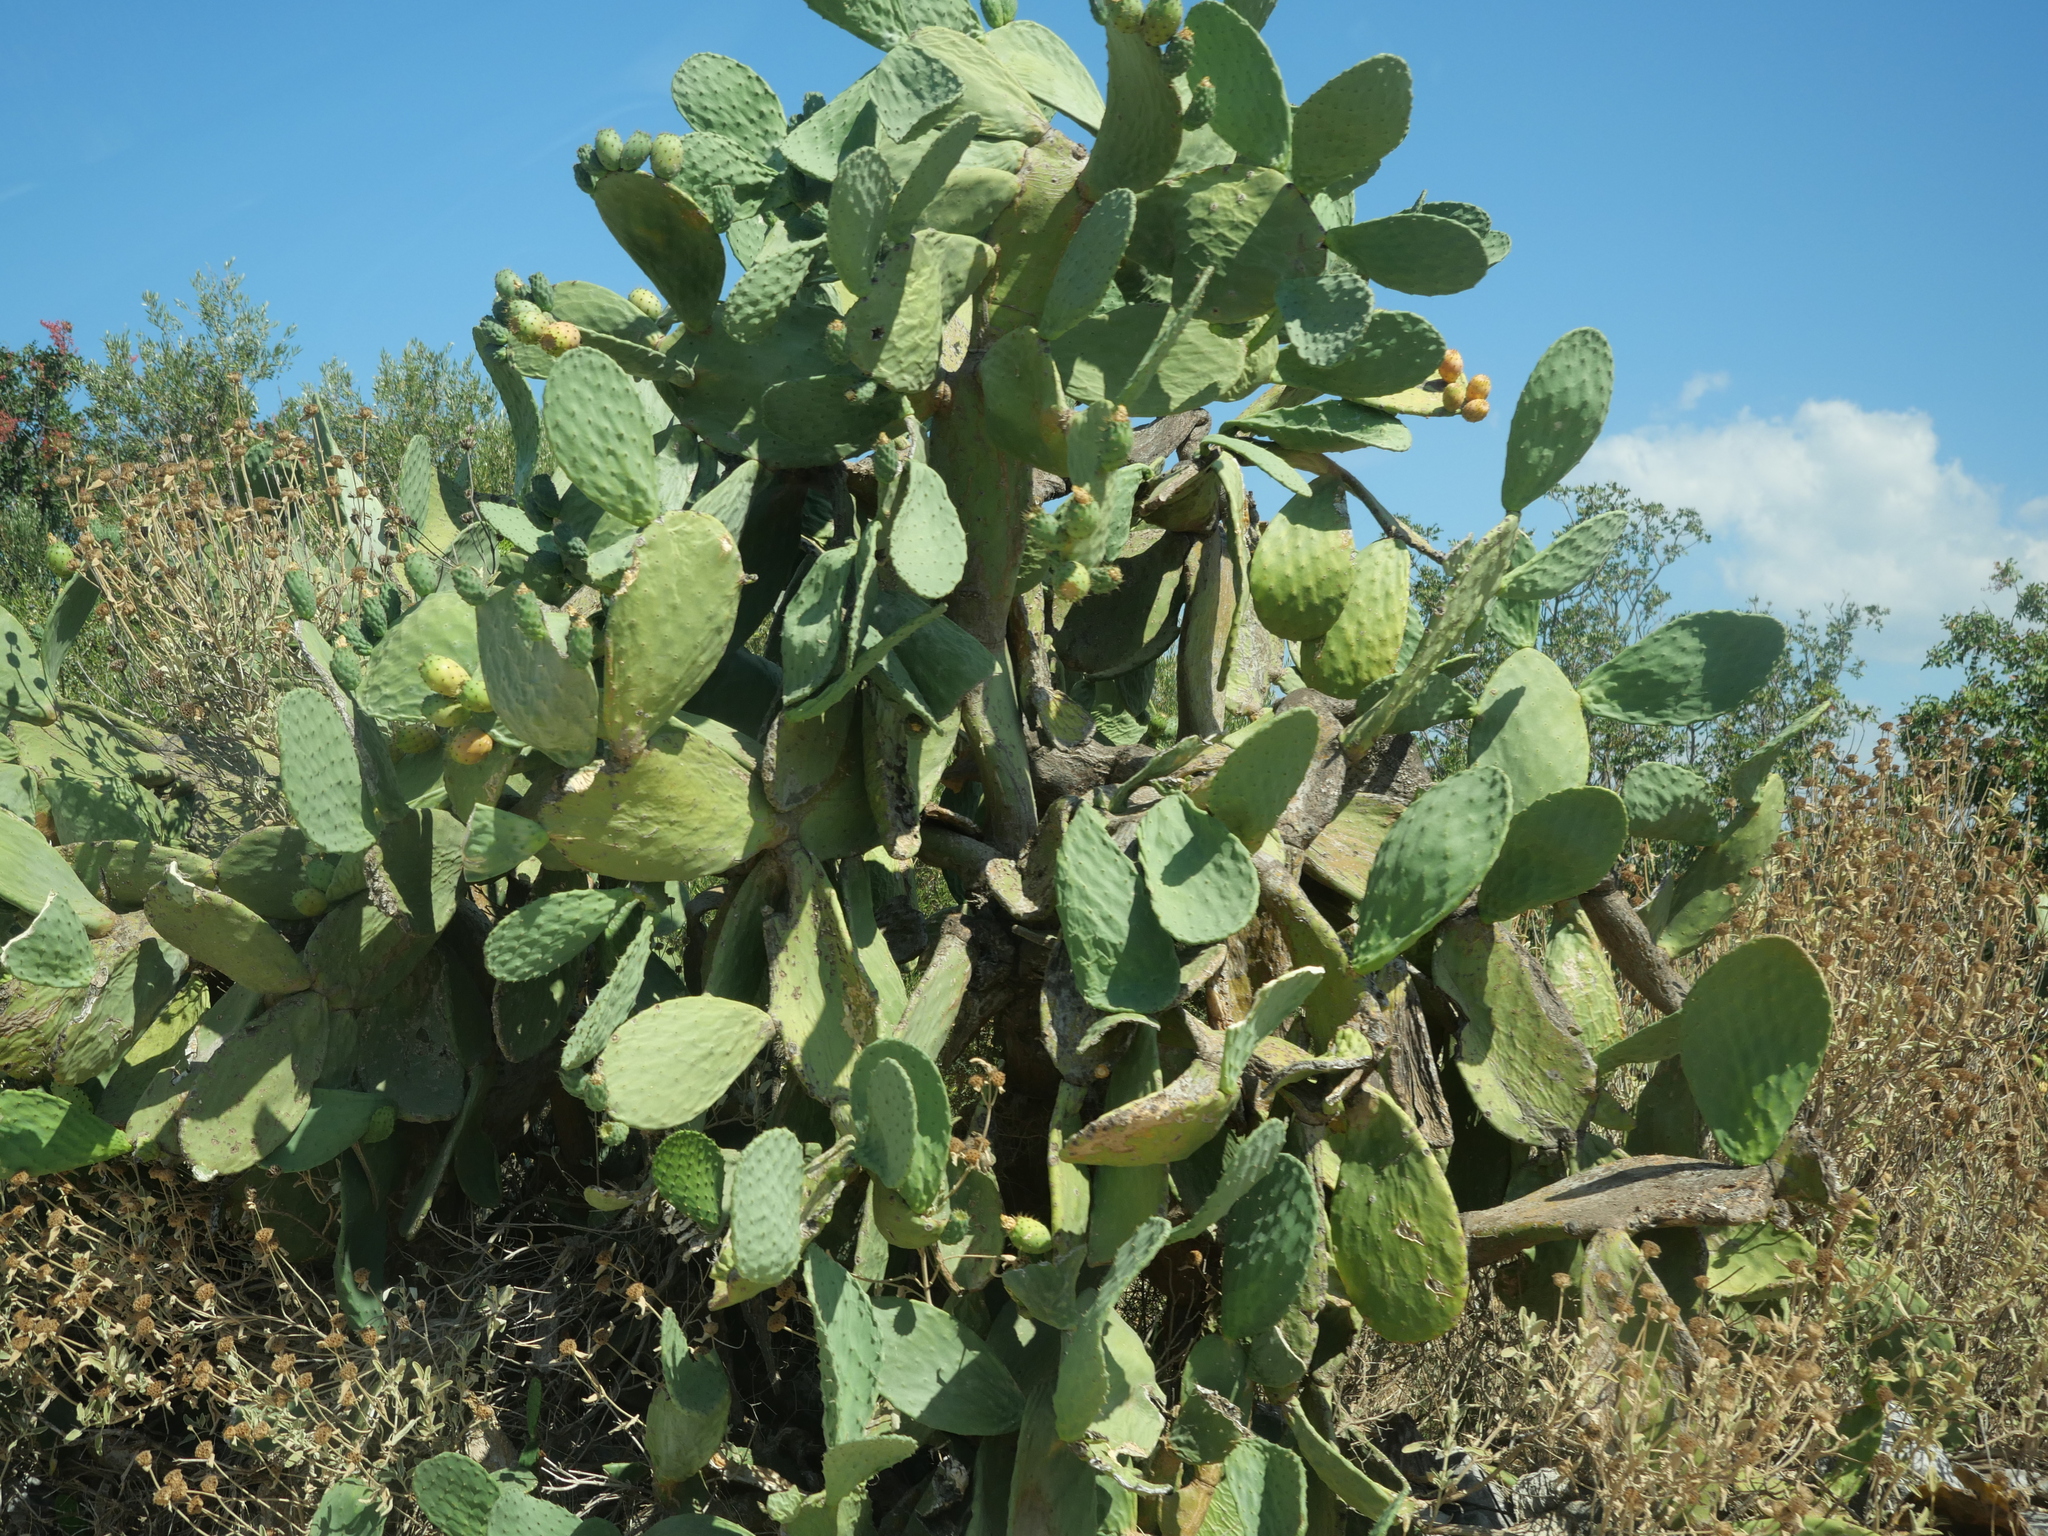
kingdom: Plantae
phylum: Tracheophyta
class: Magnoliopsida
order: Caryophyllales
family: Cactaceae
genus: Opuntia
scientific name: Opuntia ficus-indica
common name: Barbary fig
